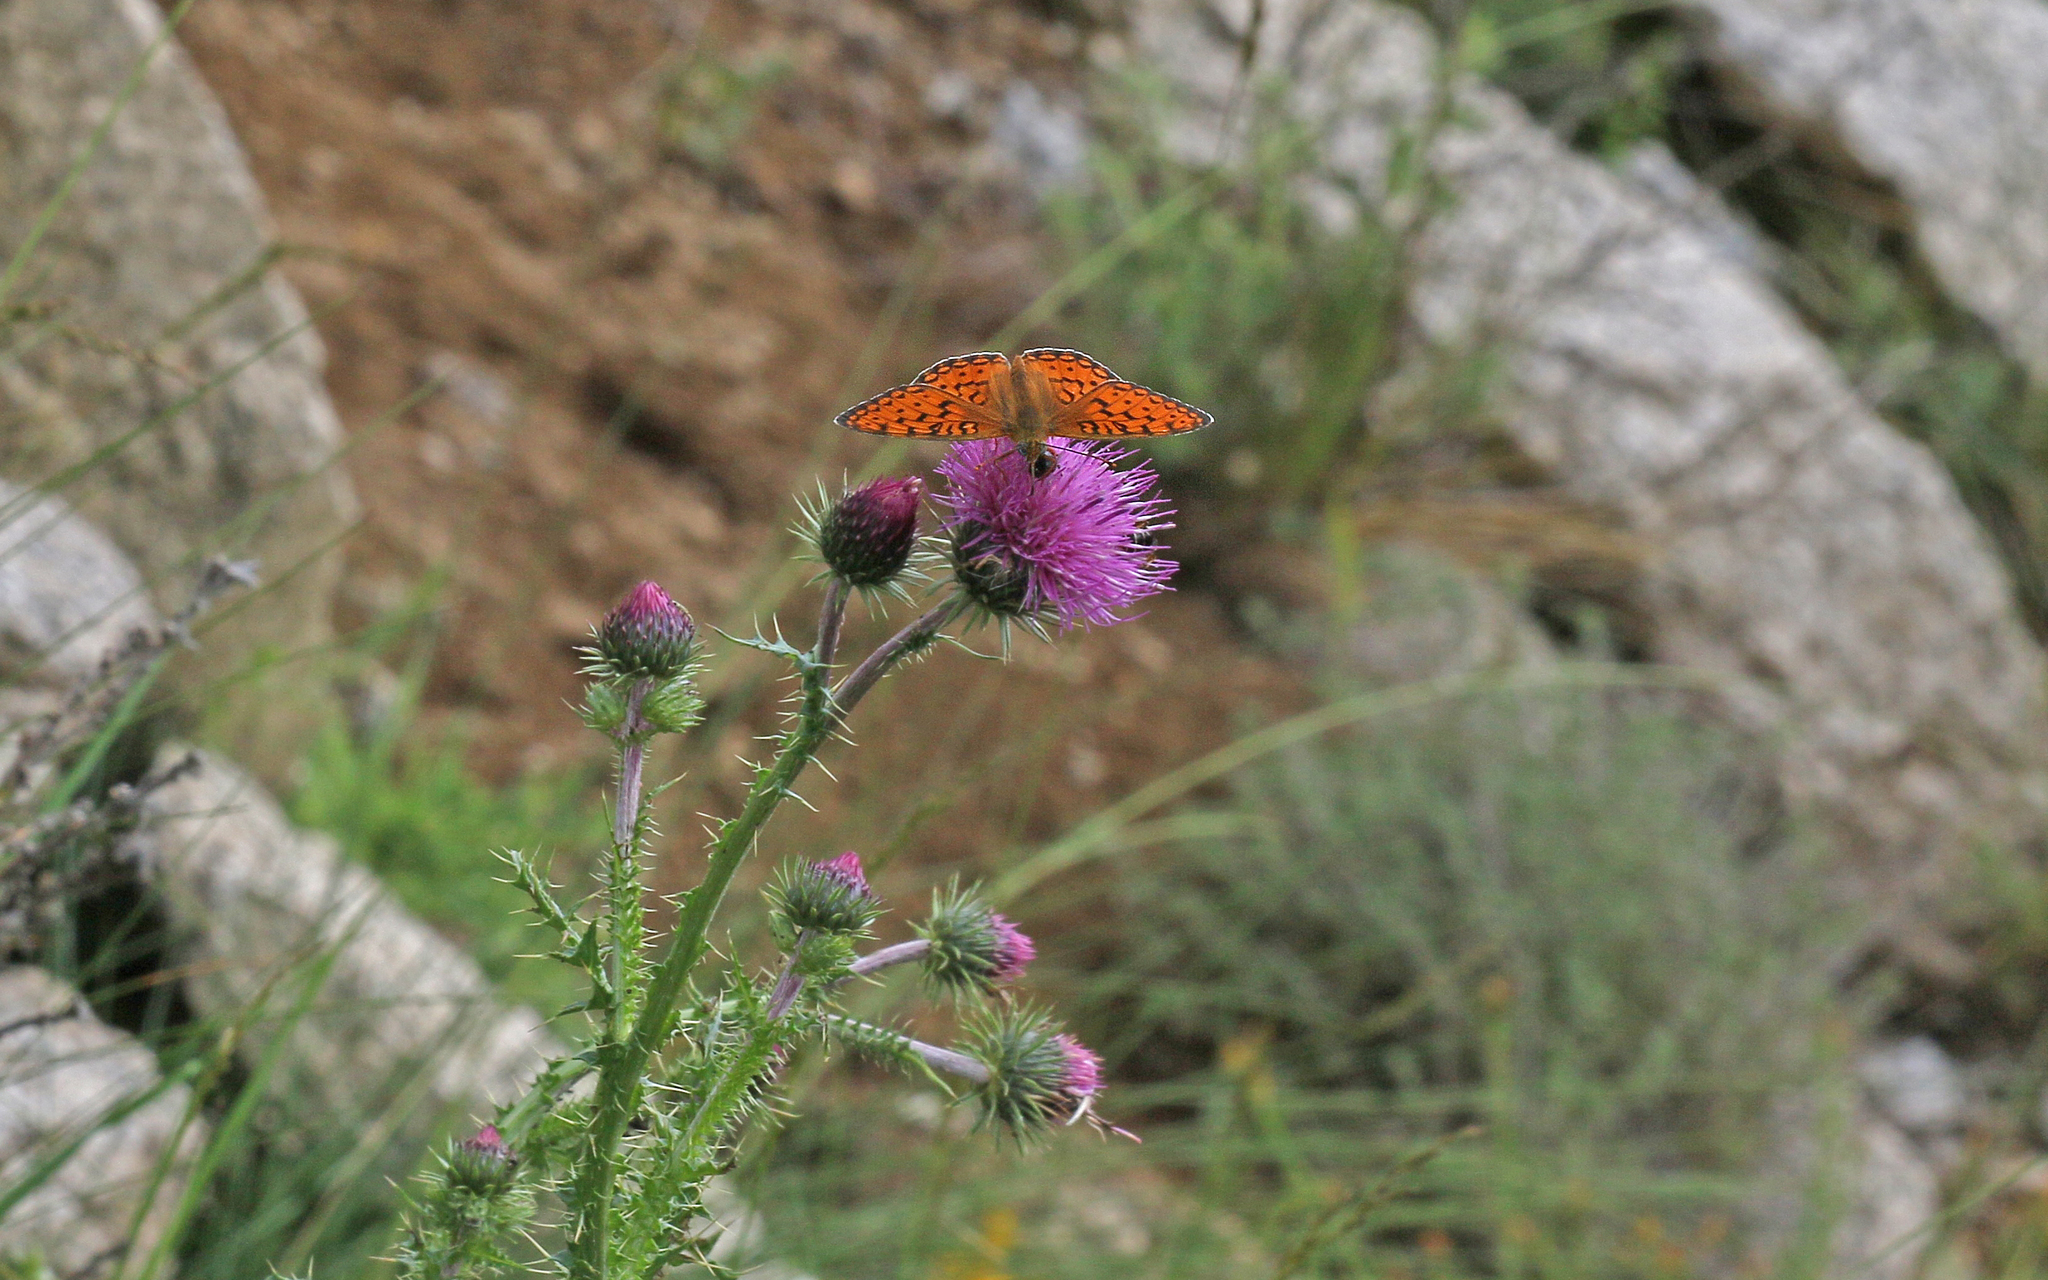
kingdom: Animalia
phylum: Arthropoda
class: Insecta
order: Lepidoptera
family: Nymphalidae
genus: Fabriciana
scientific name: Fabriciana niobe
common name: Niobe fritillary
